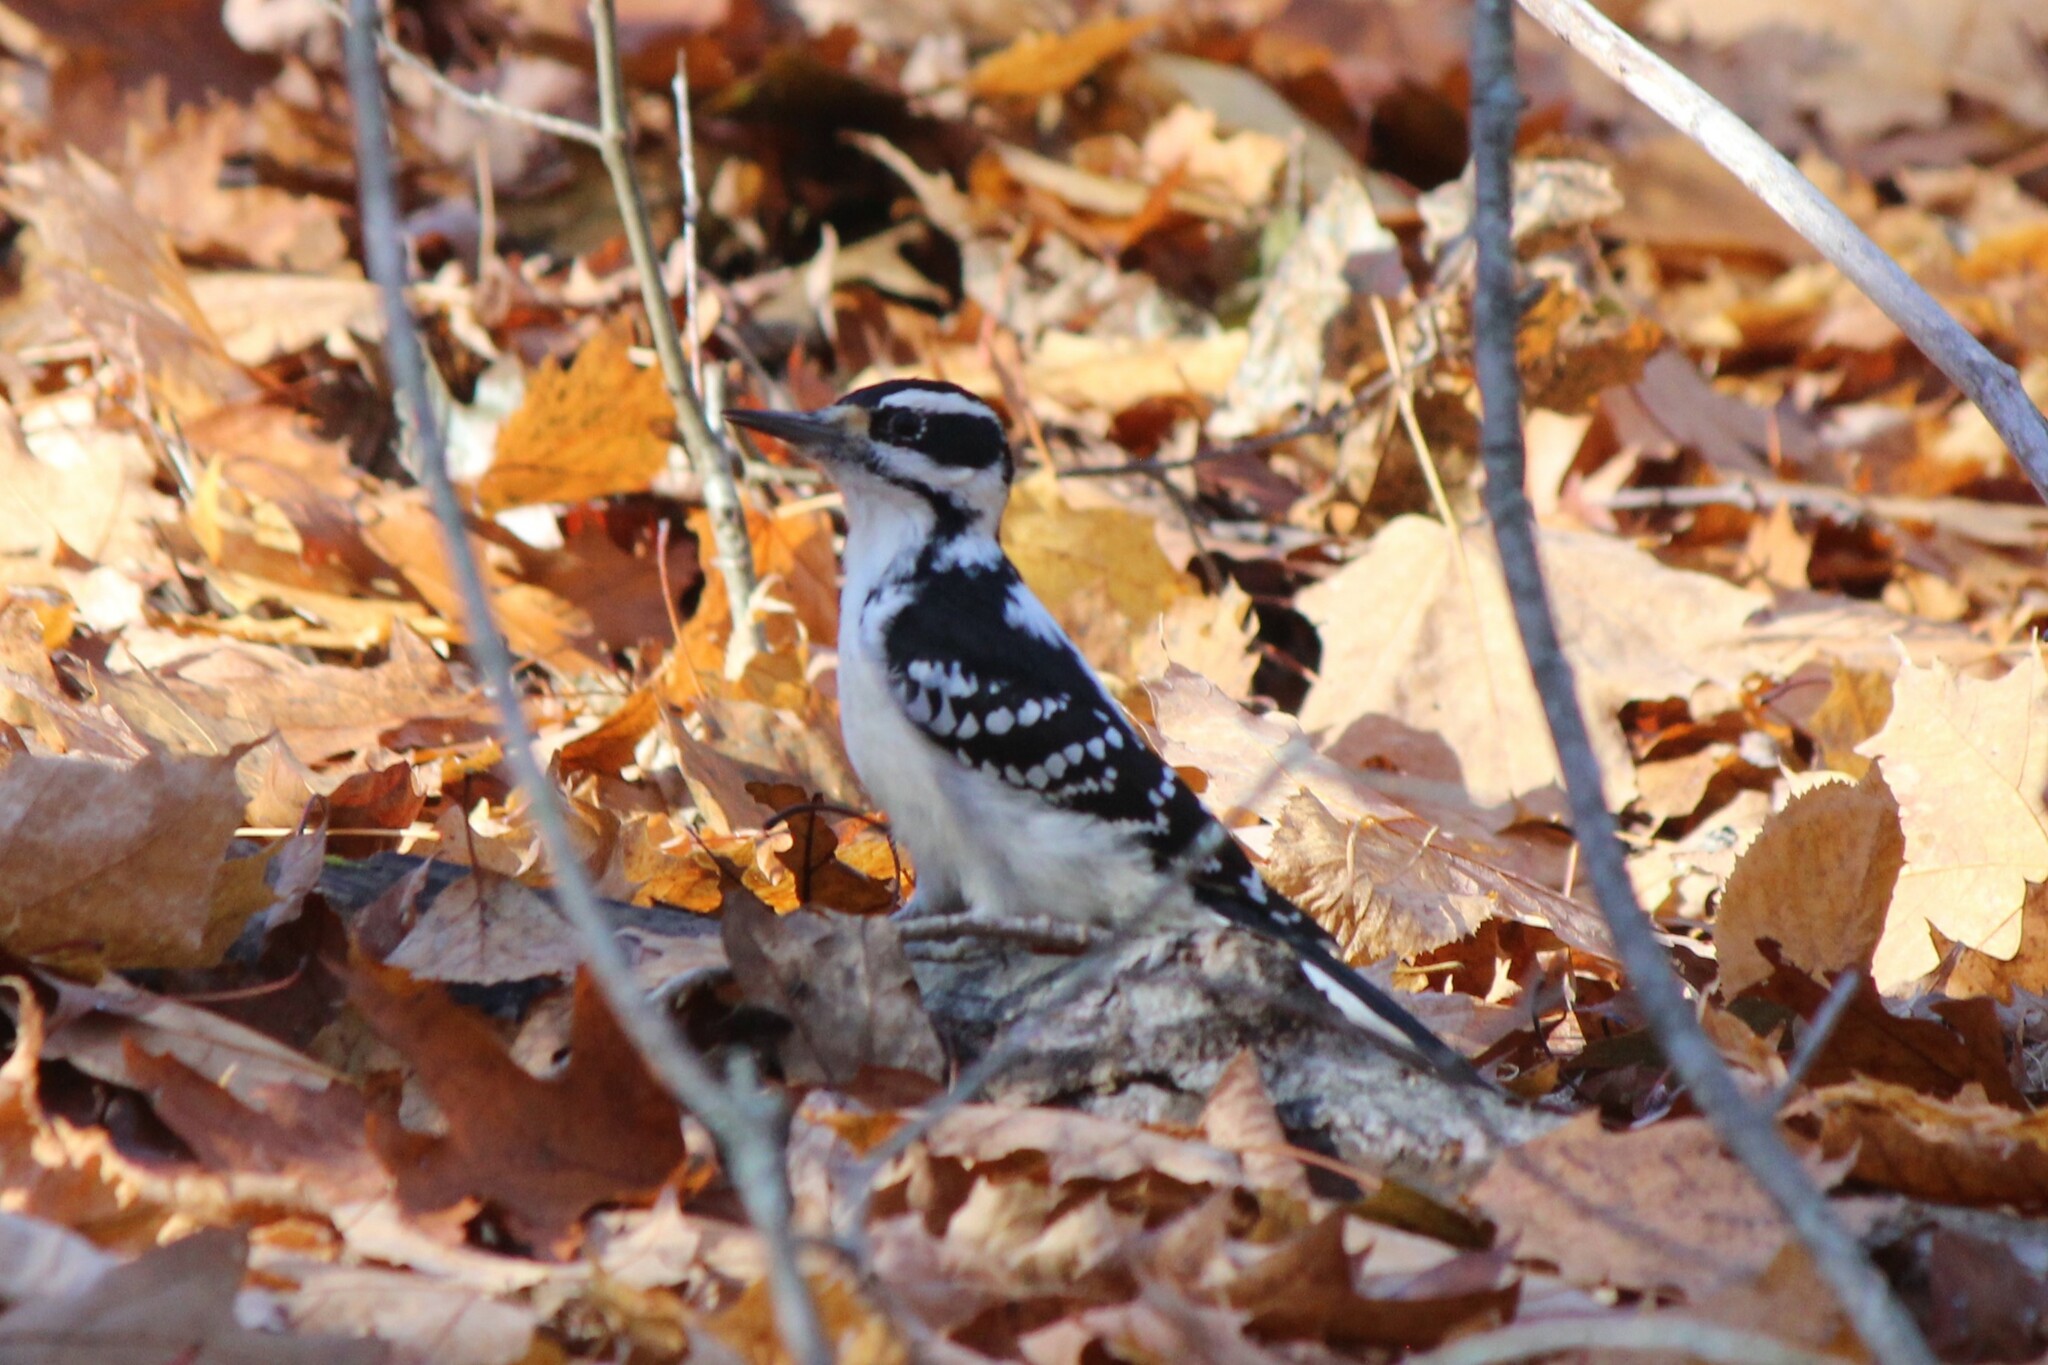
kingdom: Animalia
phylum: Chordata
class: Aves
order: Piciformes
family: Picidae
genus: Leuconotopicus
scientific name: Leuconotopicus villosus
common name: Hairy woodpecker
